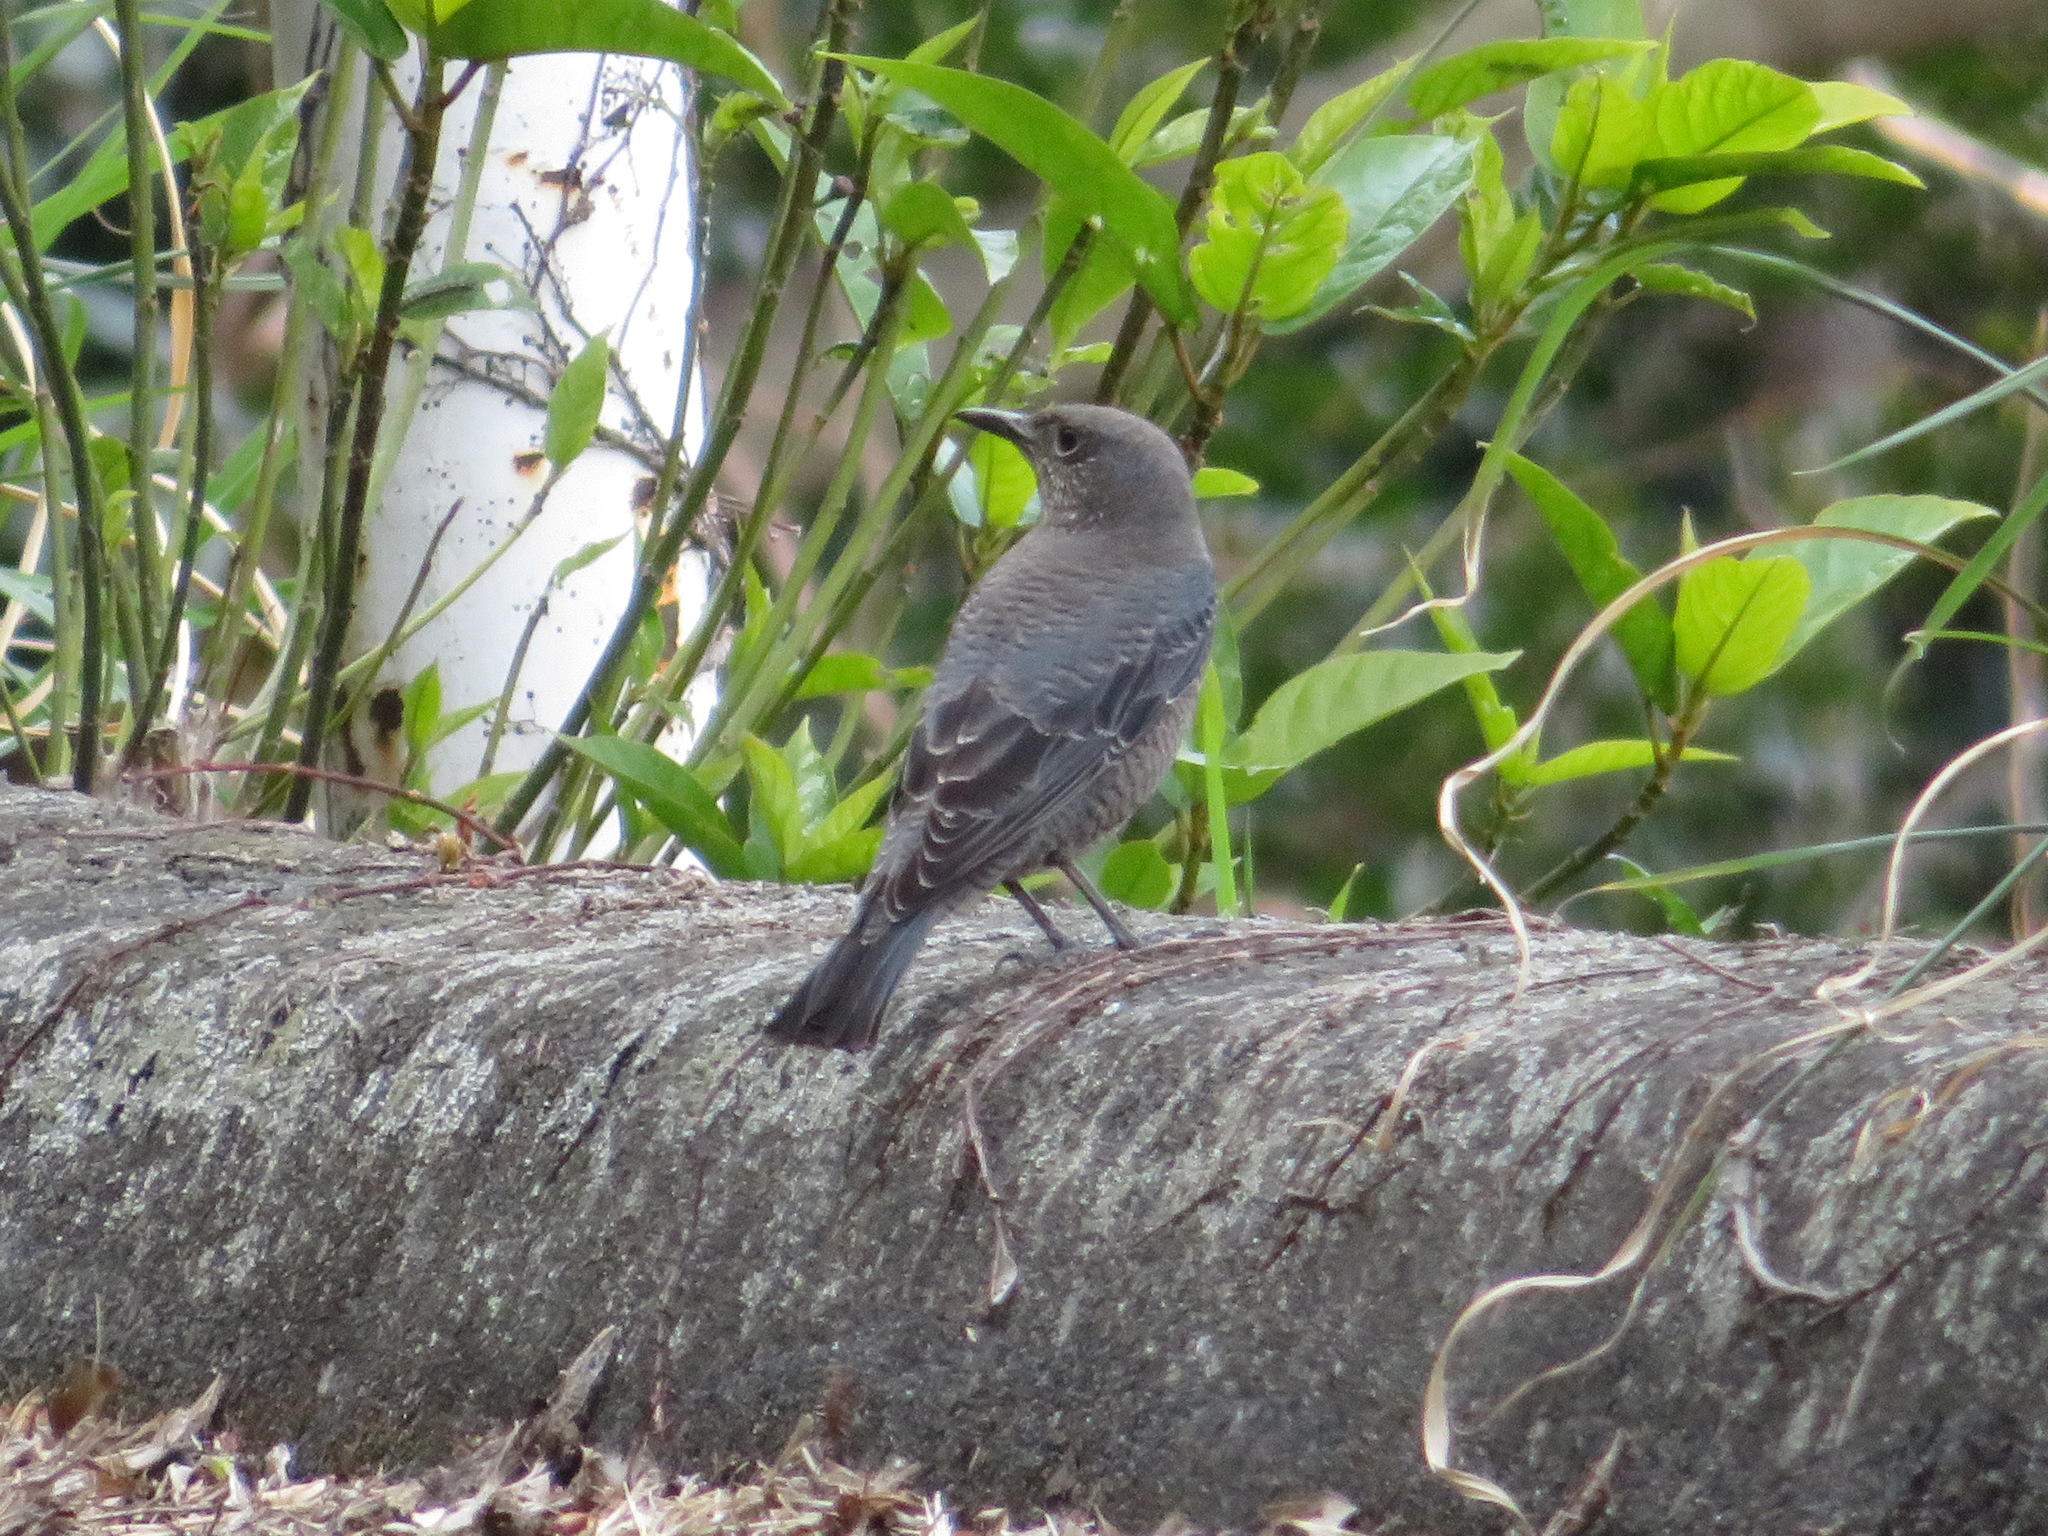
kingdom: Animalia
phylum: Chordata
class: Aves
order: Passeriformes
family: Muscicapidae
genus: Monticola
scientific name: Monticola solitarius
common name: Blue rock thrush
